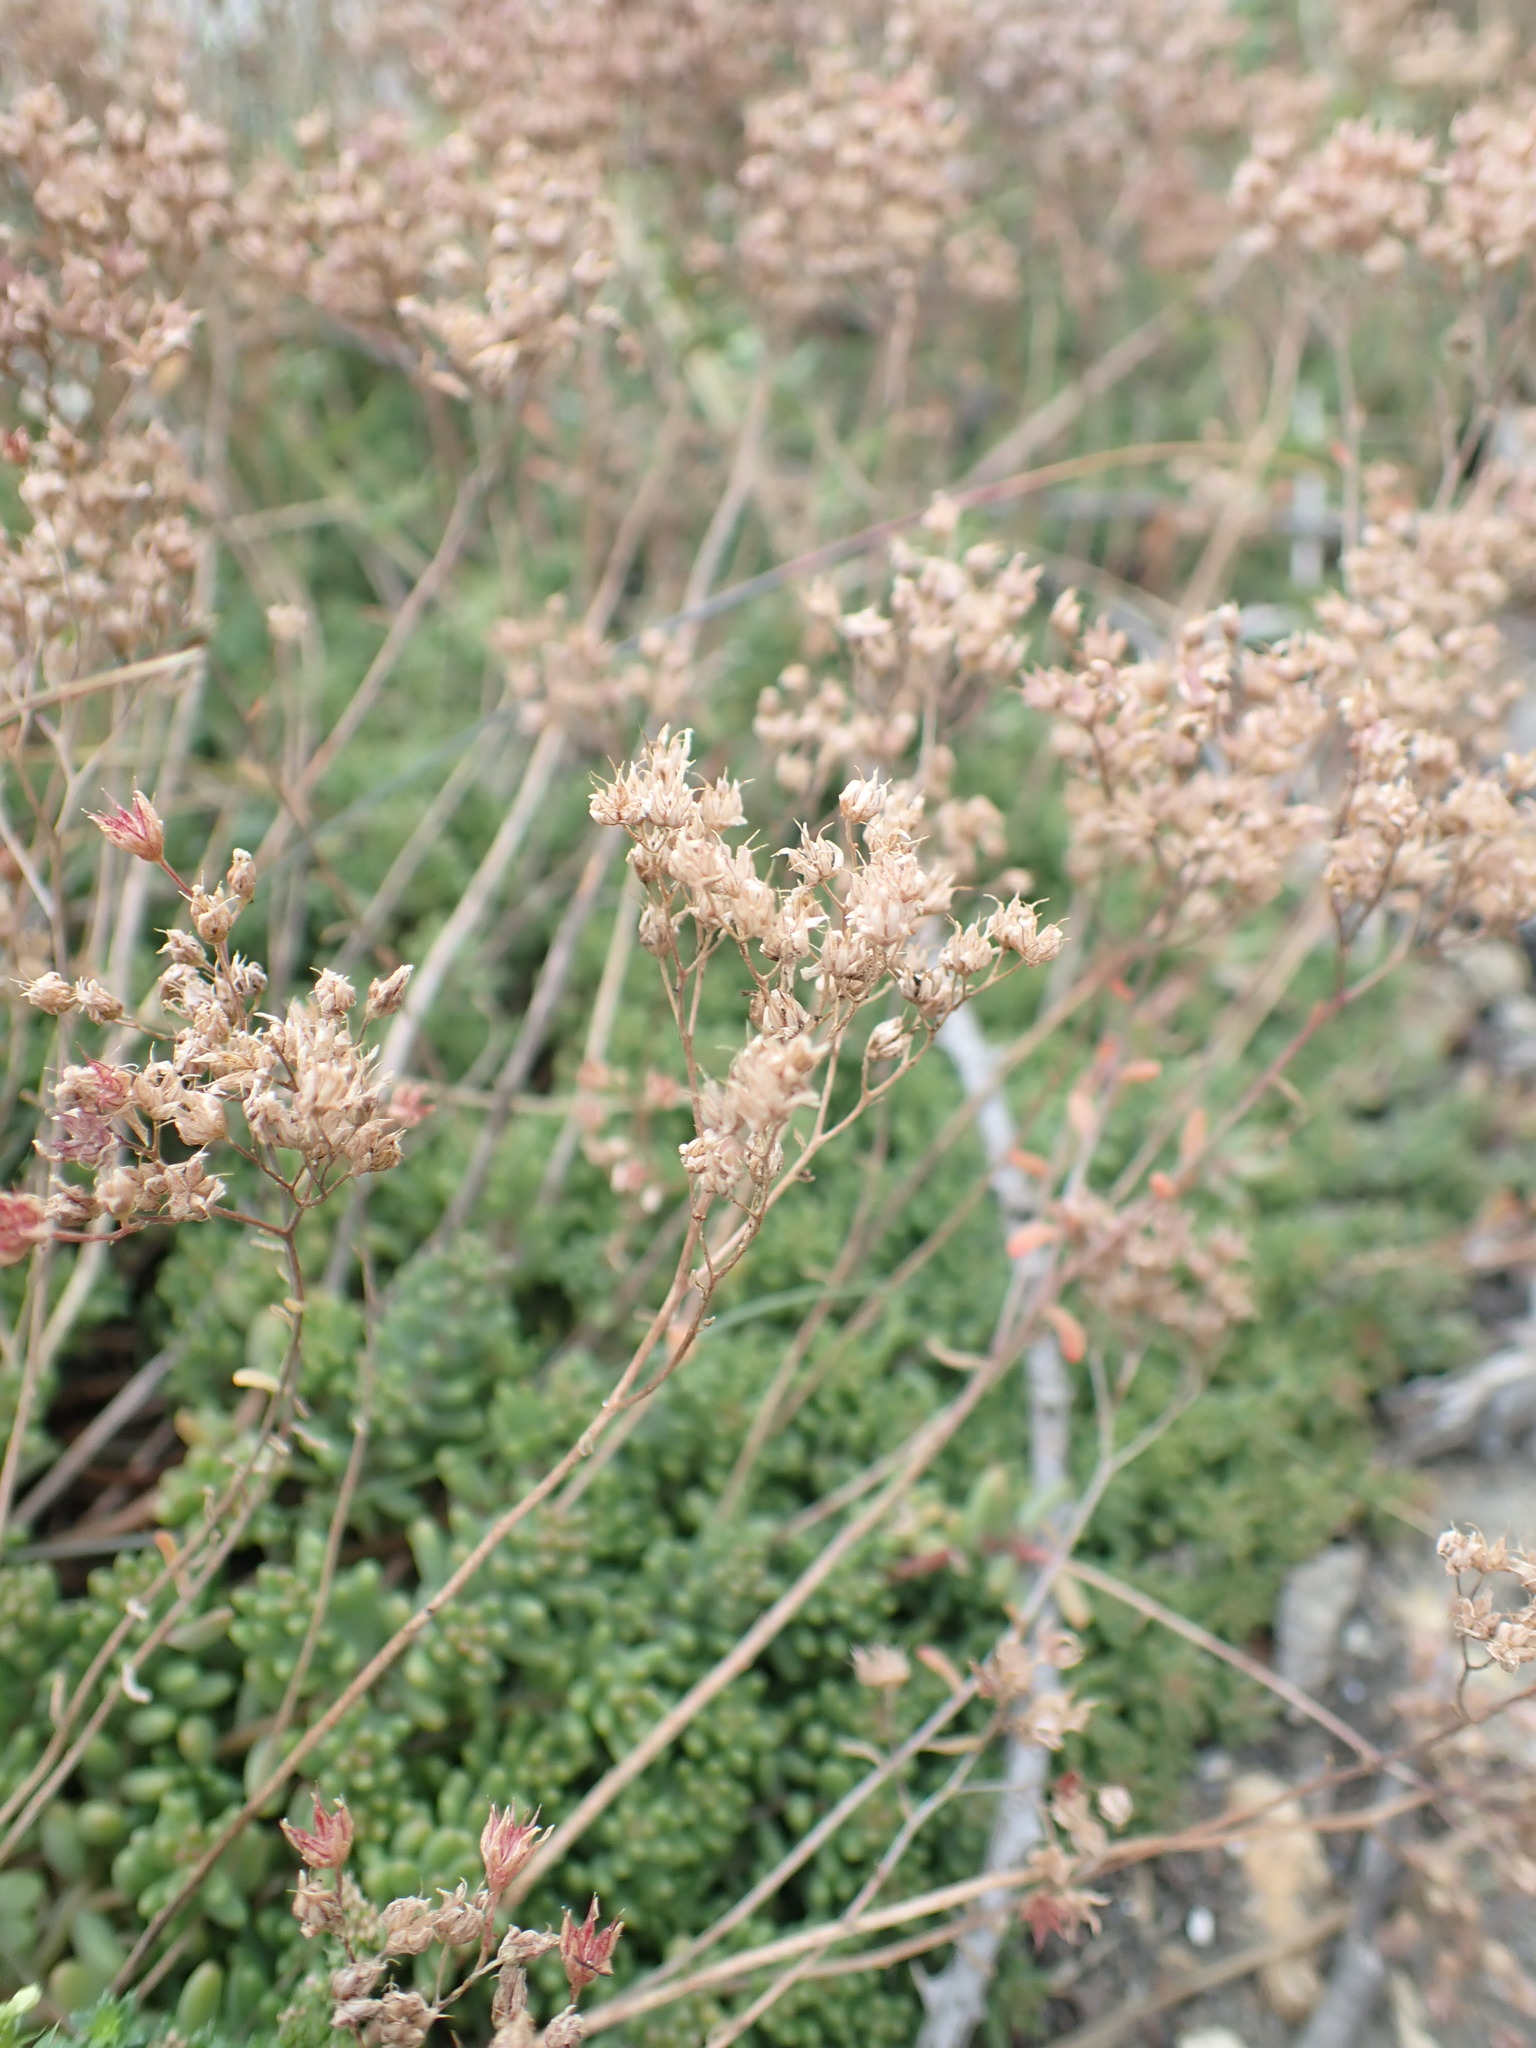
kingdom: Plantae
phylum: Tracheophyta
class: Magnoliopsida
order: Saxifragales
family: Crassulaceae
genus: Sedum
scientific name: Sedum album
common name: White stonecrop
